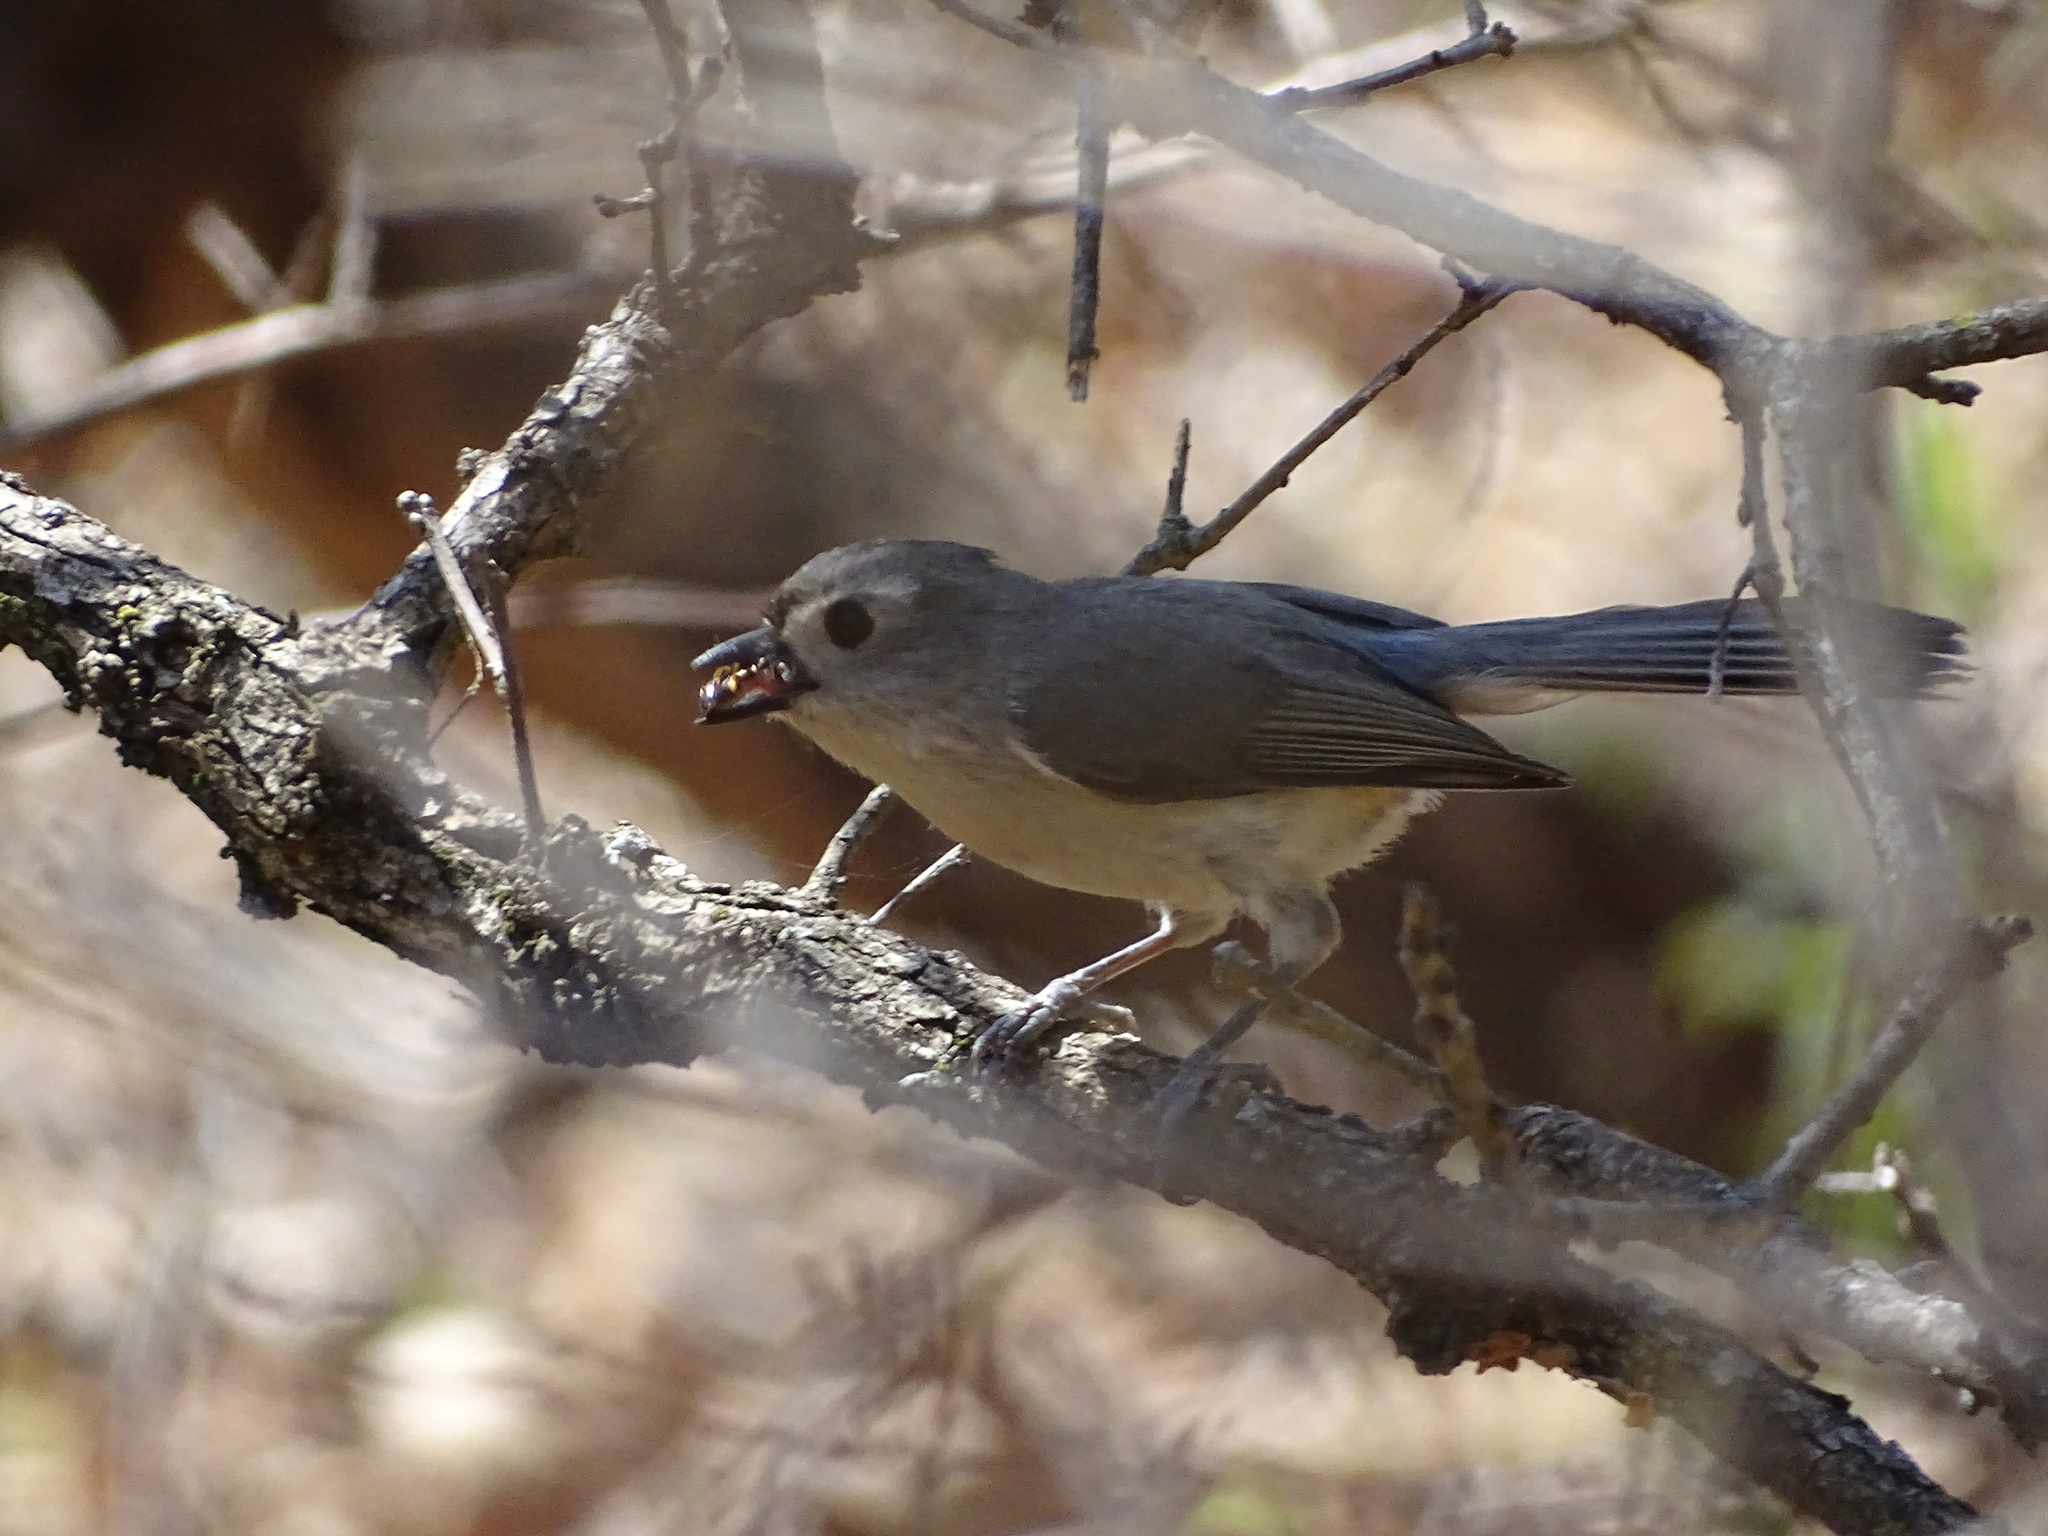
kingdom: Animalia
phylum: Chordata
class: Aves
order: Passeriformes
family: Paridae
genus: Baeolophus
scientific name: Baeolophus bicolor
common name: Tufted titmouse
